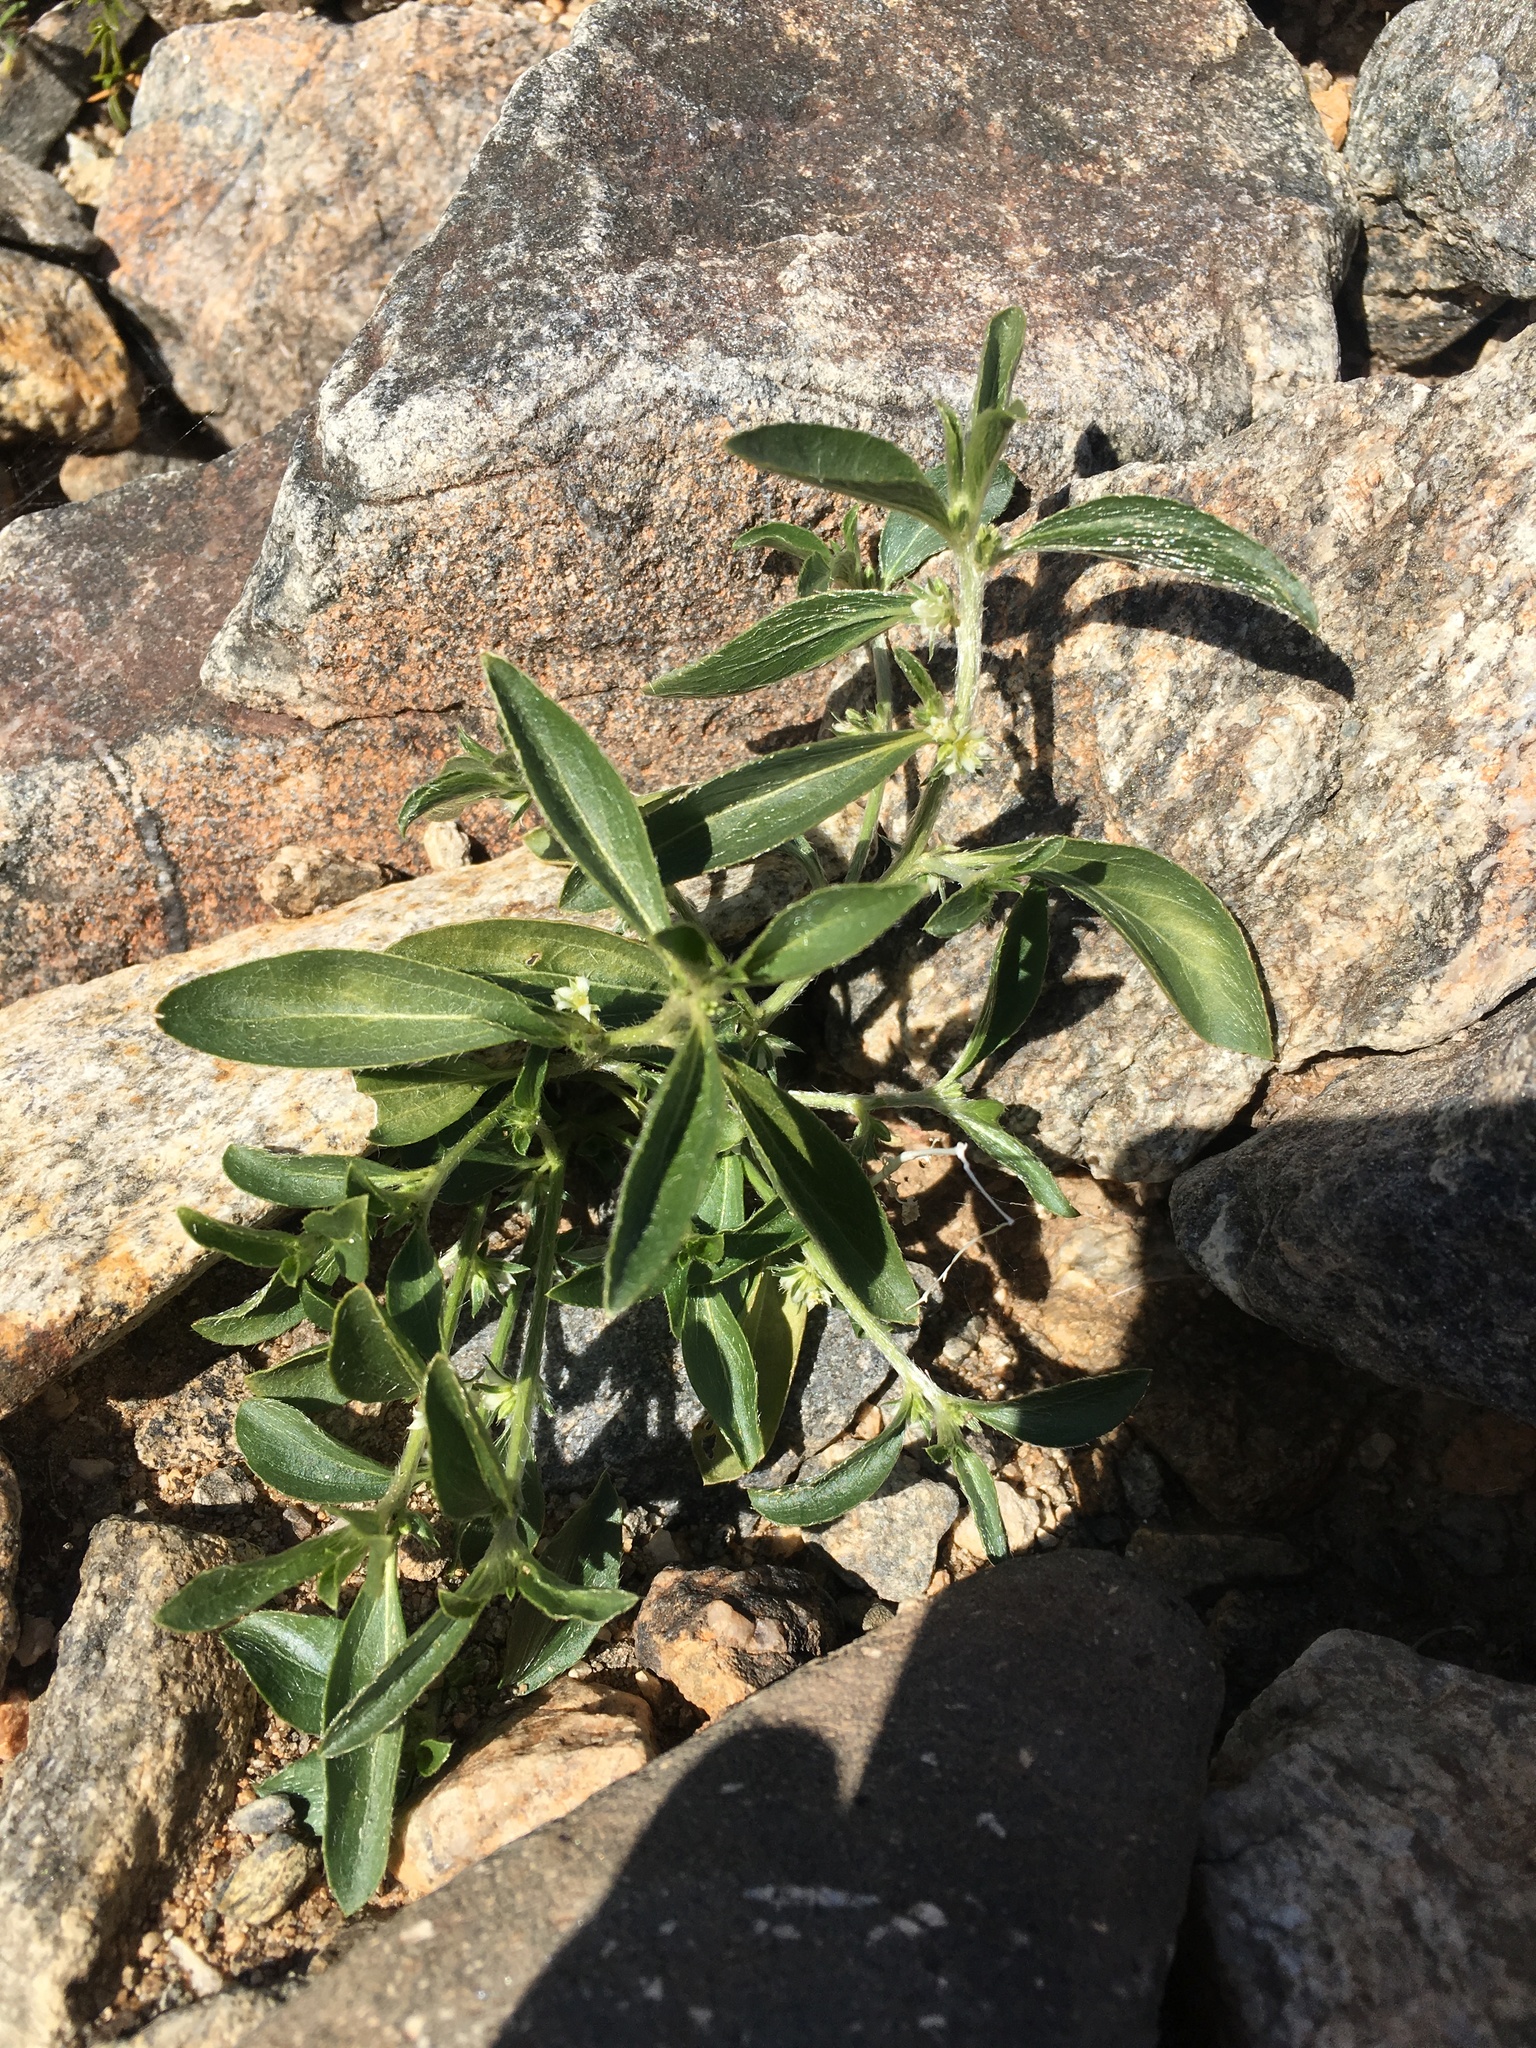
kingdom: Plantae
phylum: Tracheophyta
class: Magnoliopsida
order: Malpighiales
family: Euphorbiaceae
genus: Ditaxis
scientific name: Ditaxis serrata
